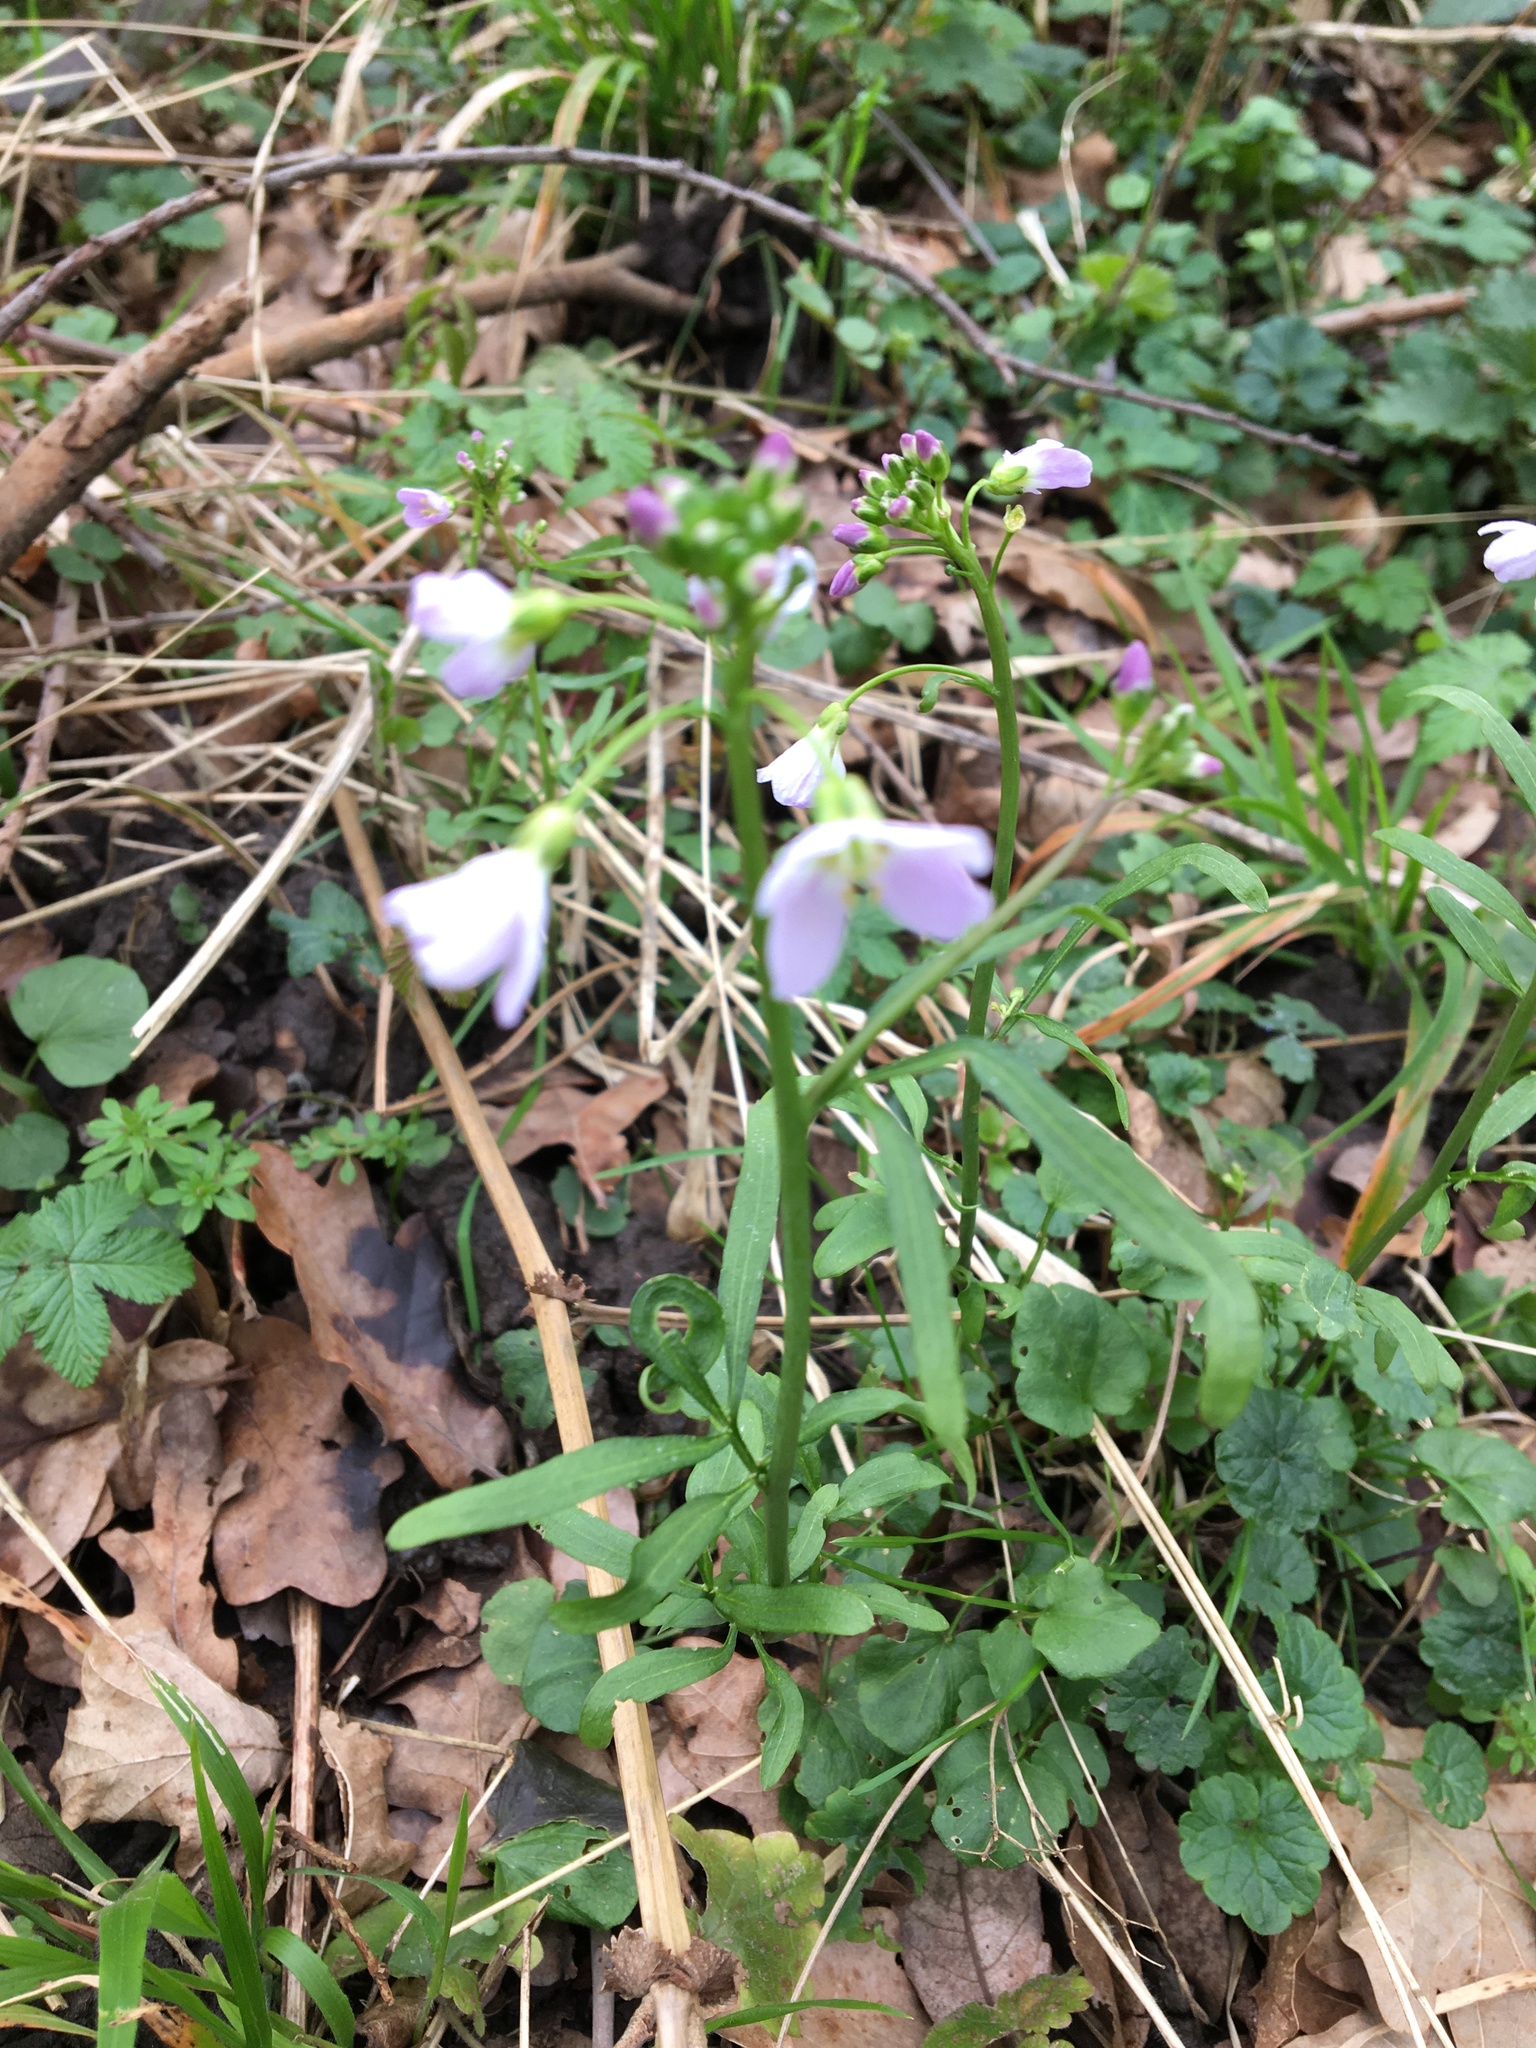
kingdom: Plantae
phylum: Tracheophyta
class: Magnoliopsida
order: Brassicales
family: Brassicaceae
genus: Cardamine
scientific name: Cardamine pratensis
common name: Cuckoo flower
